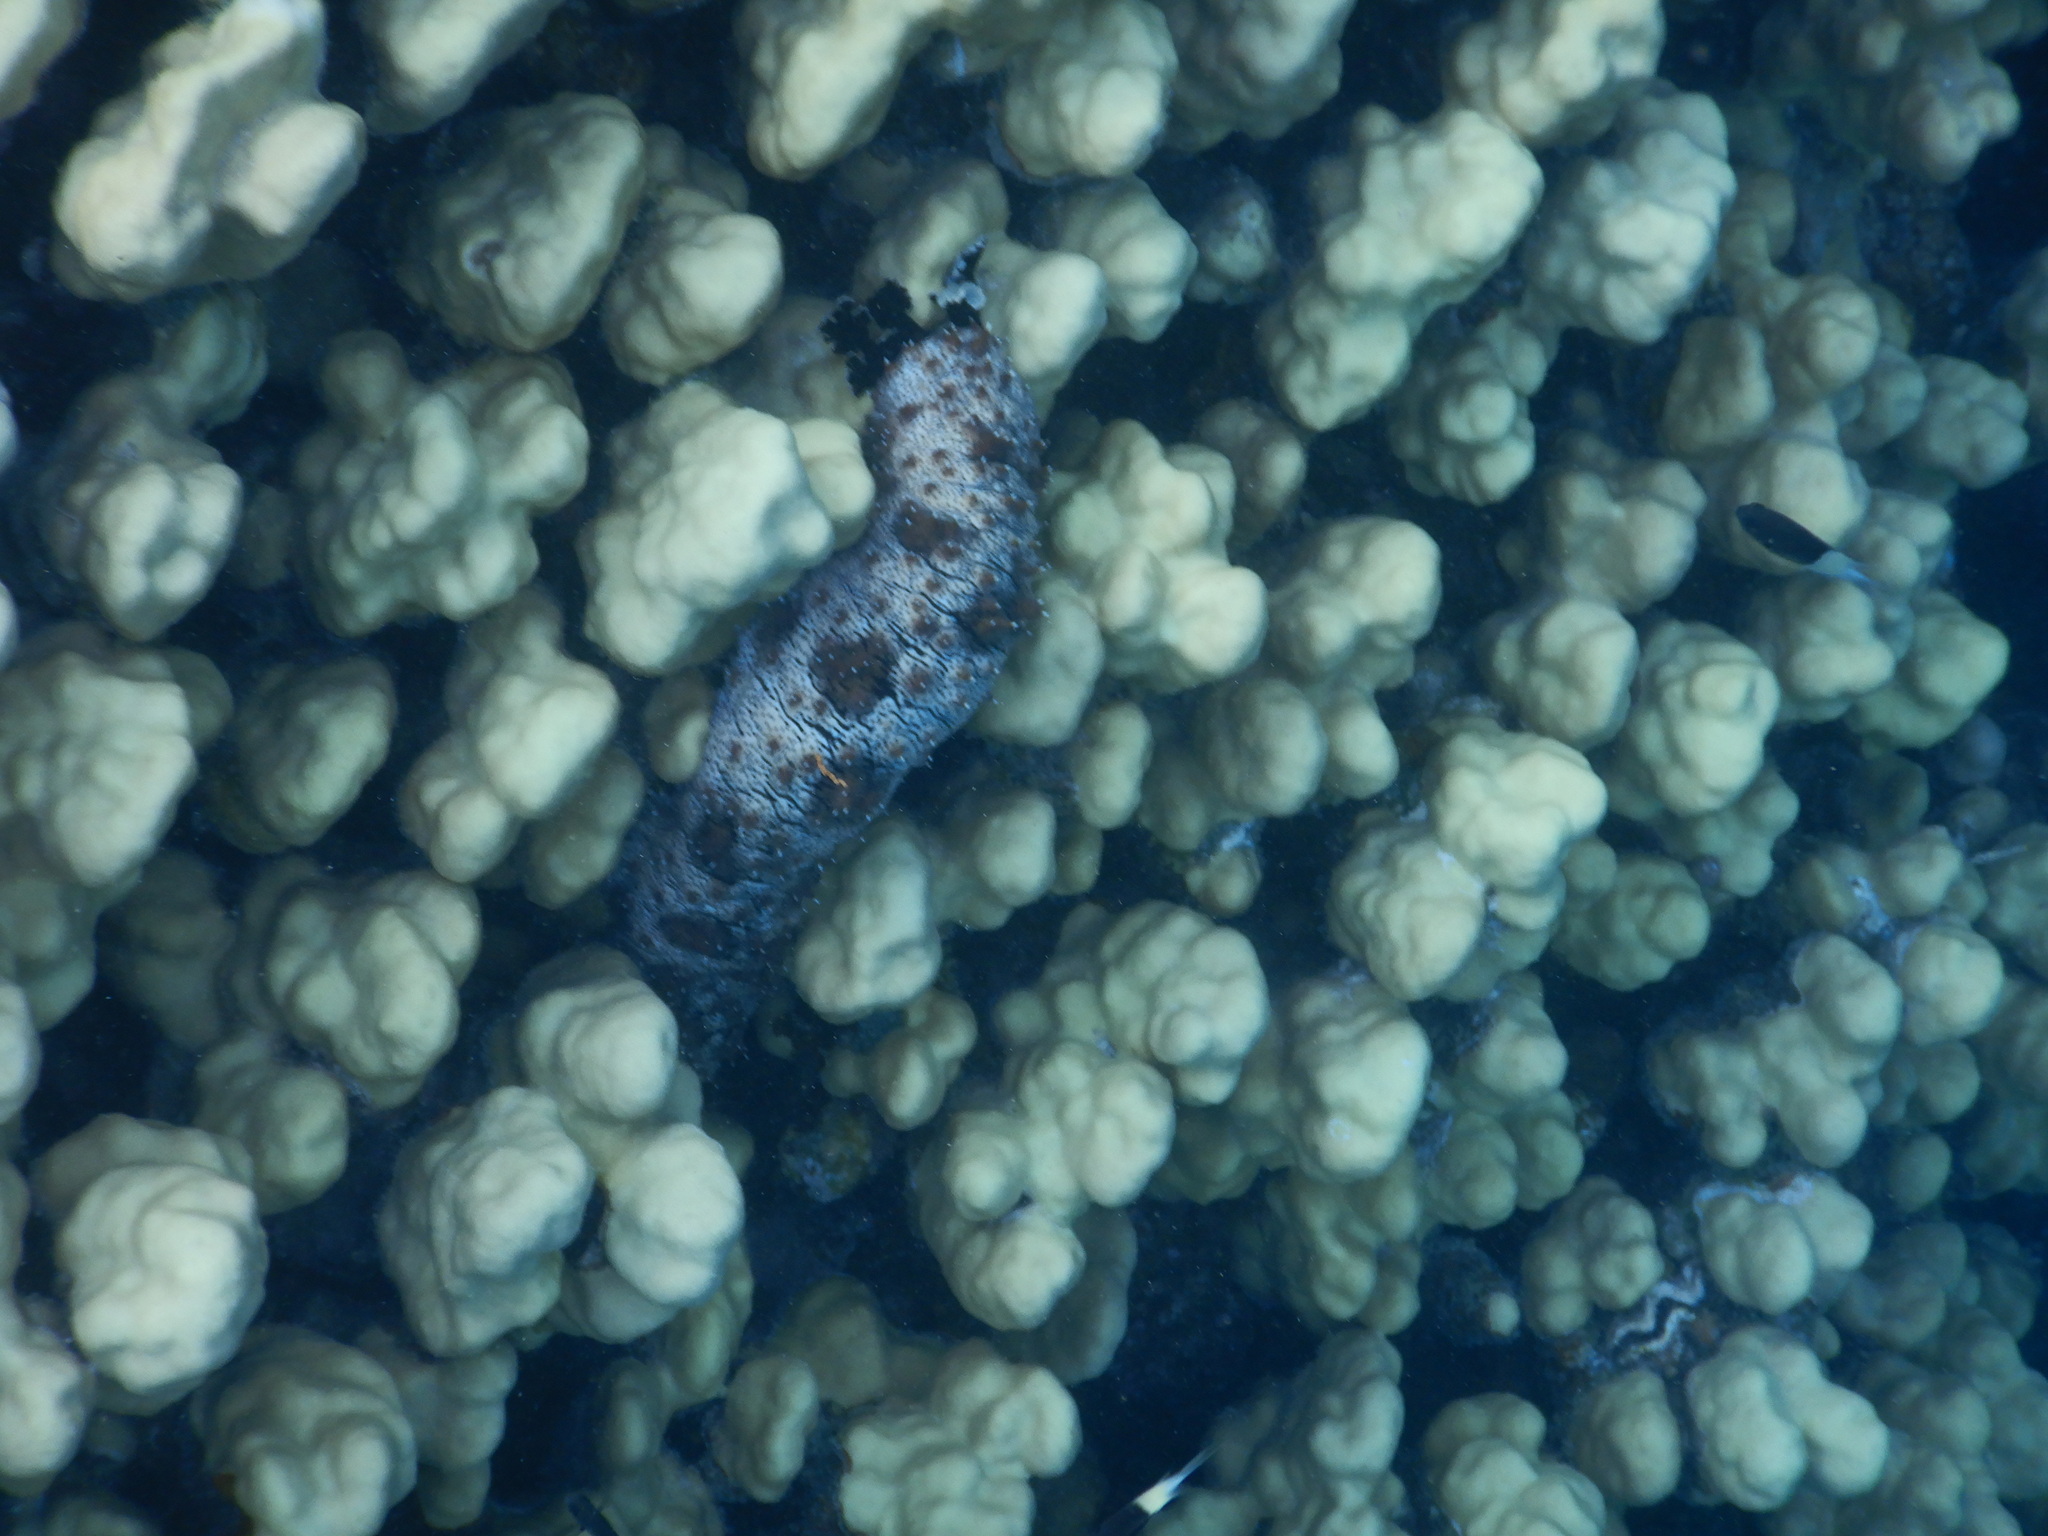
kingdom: Animalia
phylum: Echinodermata
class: Holothuroidea
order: Holothuriida
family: Holothuriidae
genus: Pearsonothuria
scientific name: Pearsonothuria graeffei
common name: Blackspotted sea cucumber
